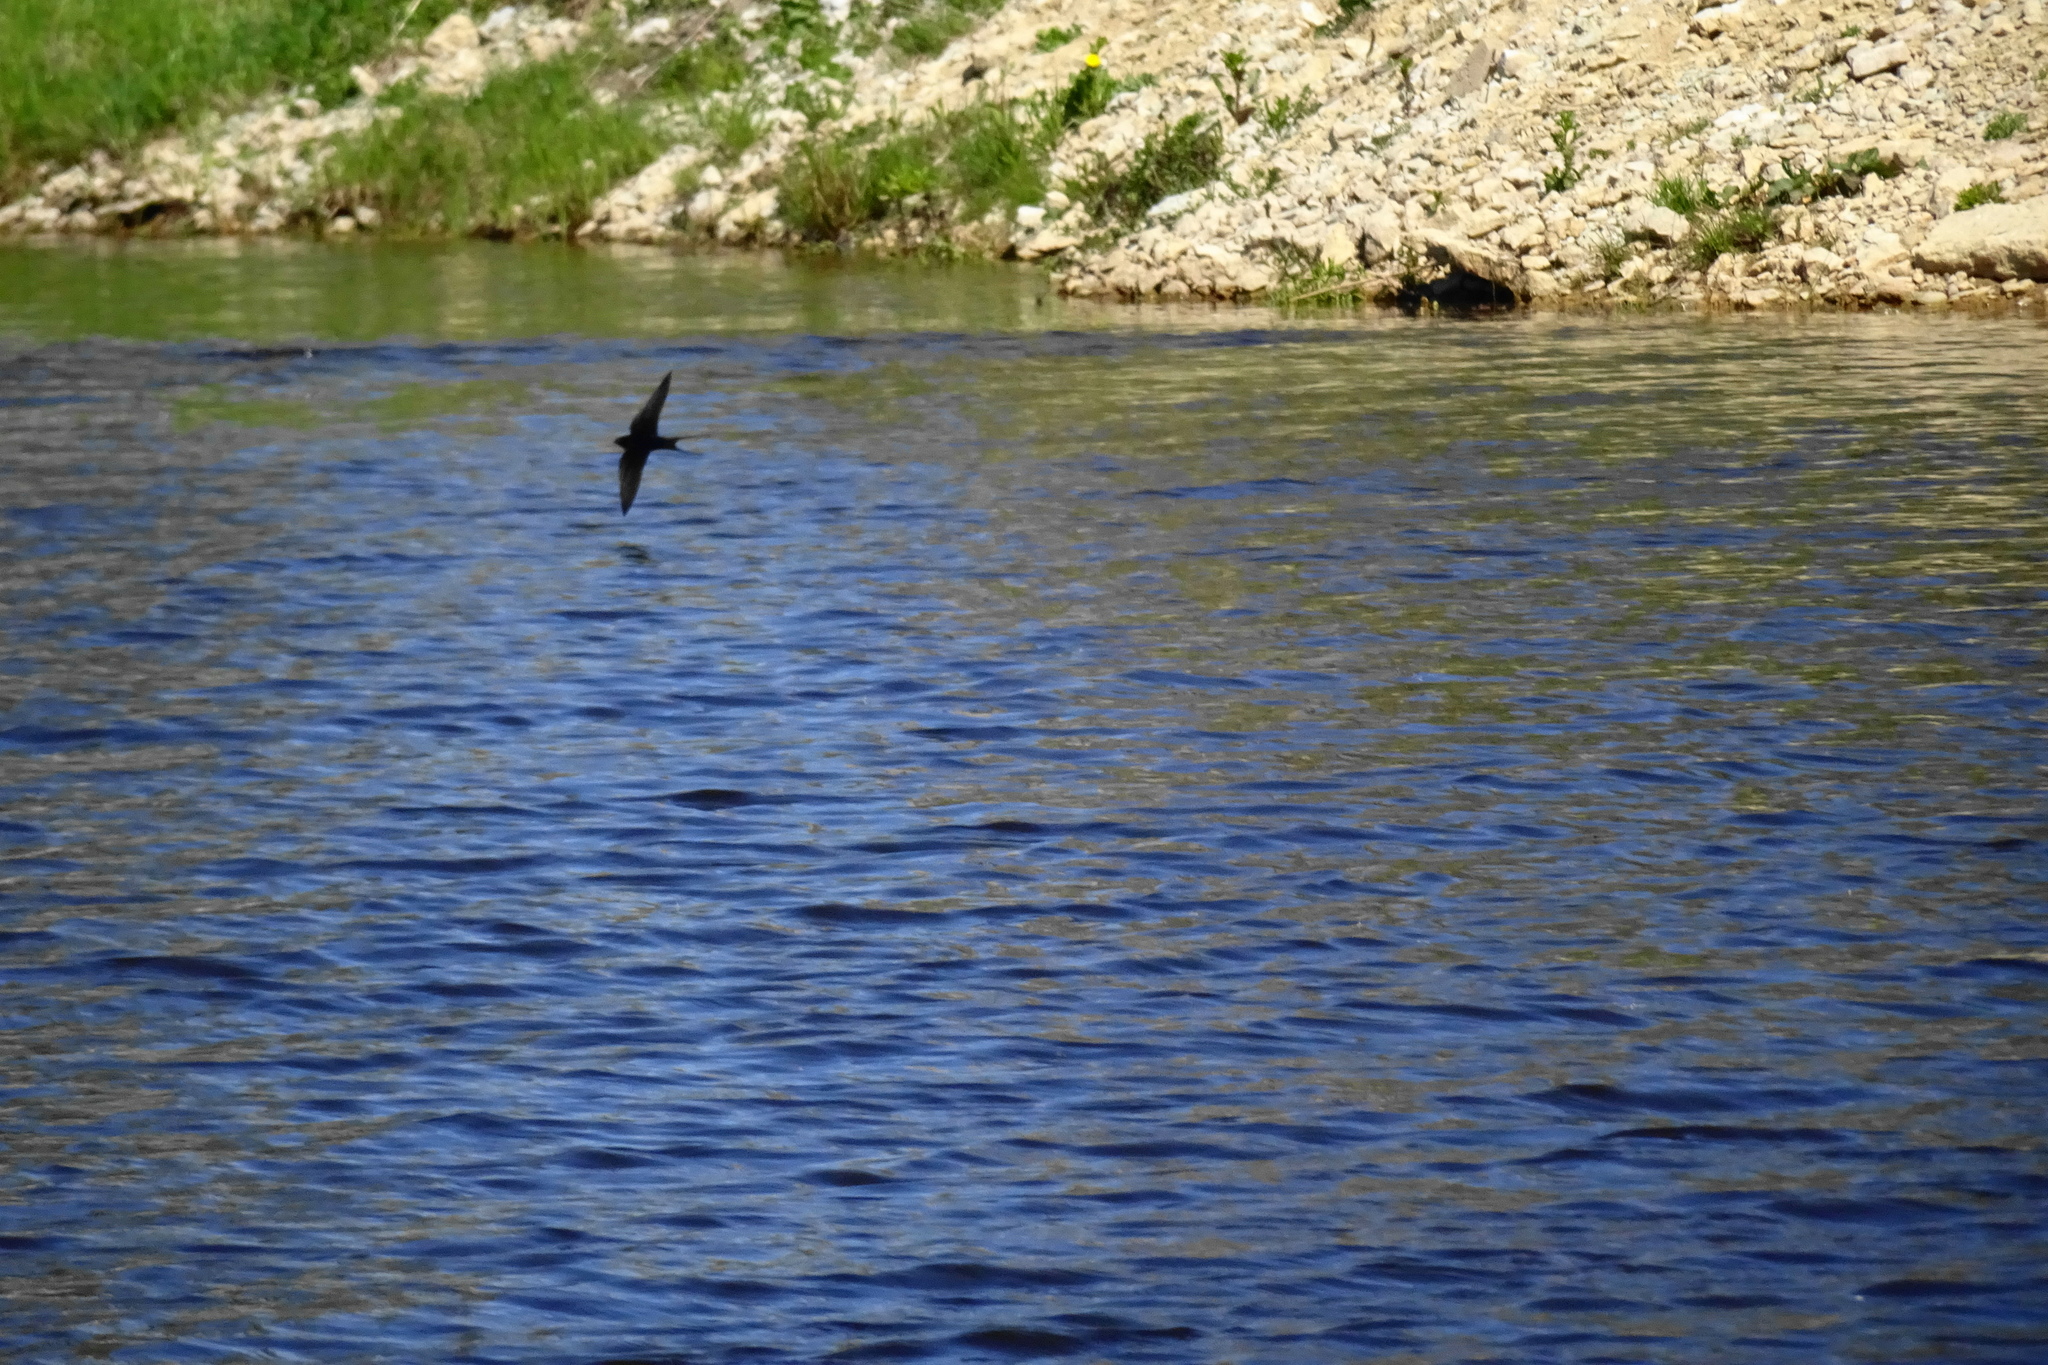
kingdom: Animalia
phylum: Chordata
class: Aves
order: Passeriformes
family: Hirundinidae
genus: Hirundo
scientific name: Hirundo rustica
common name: Barn swallow
